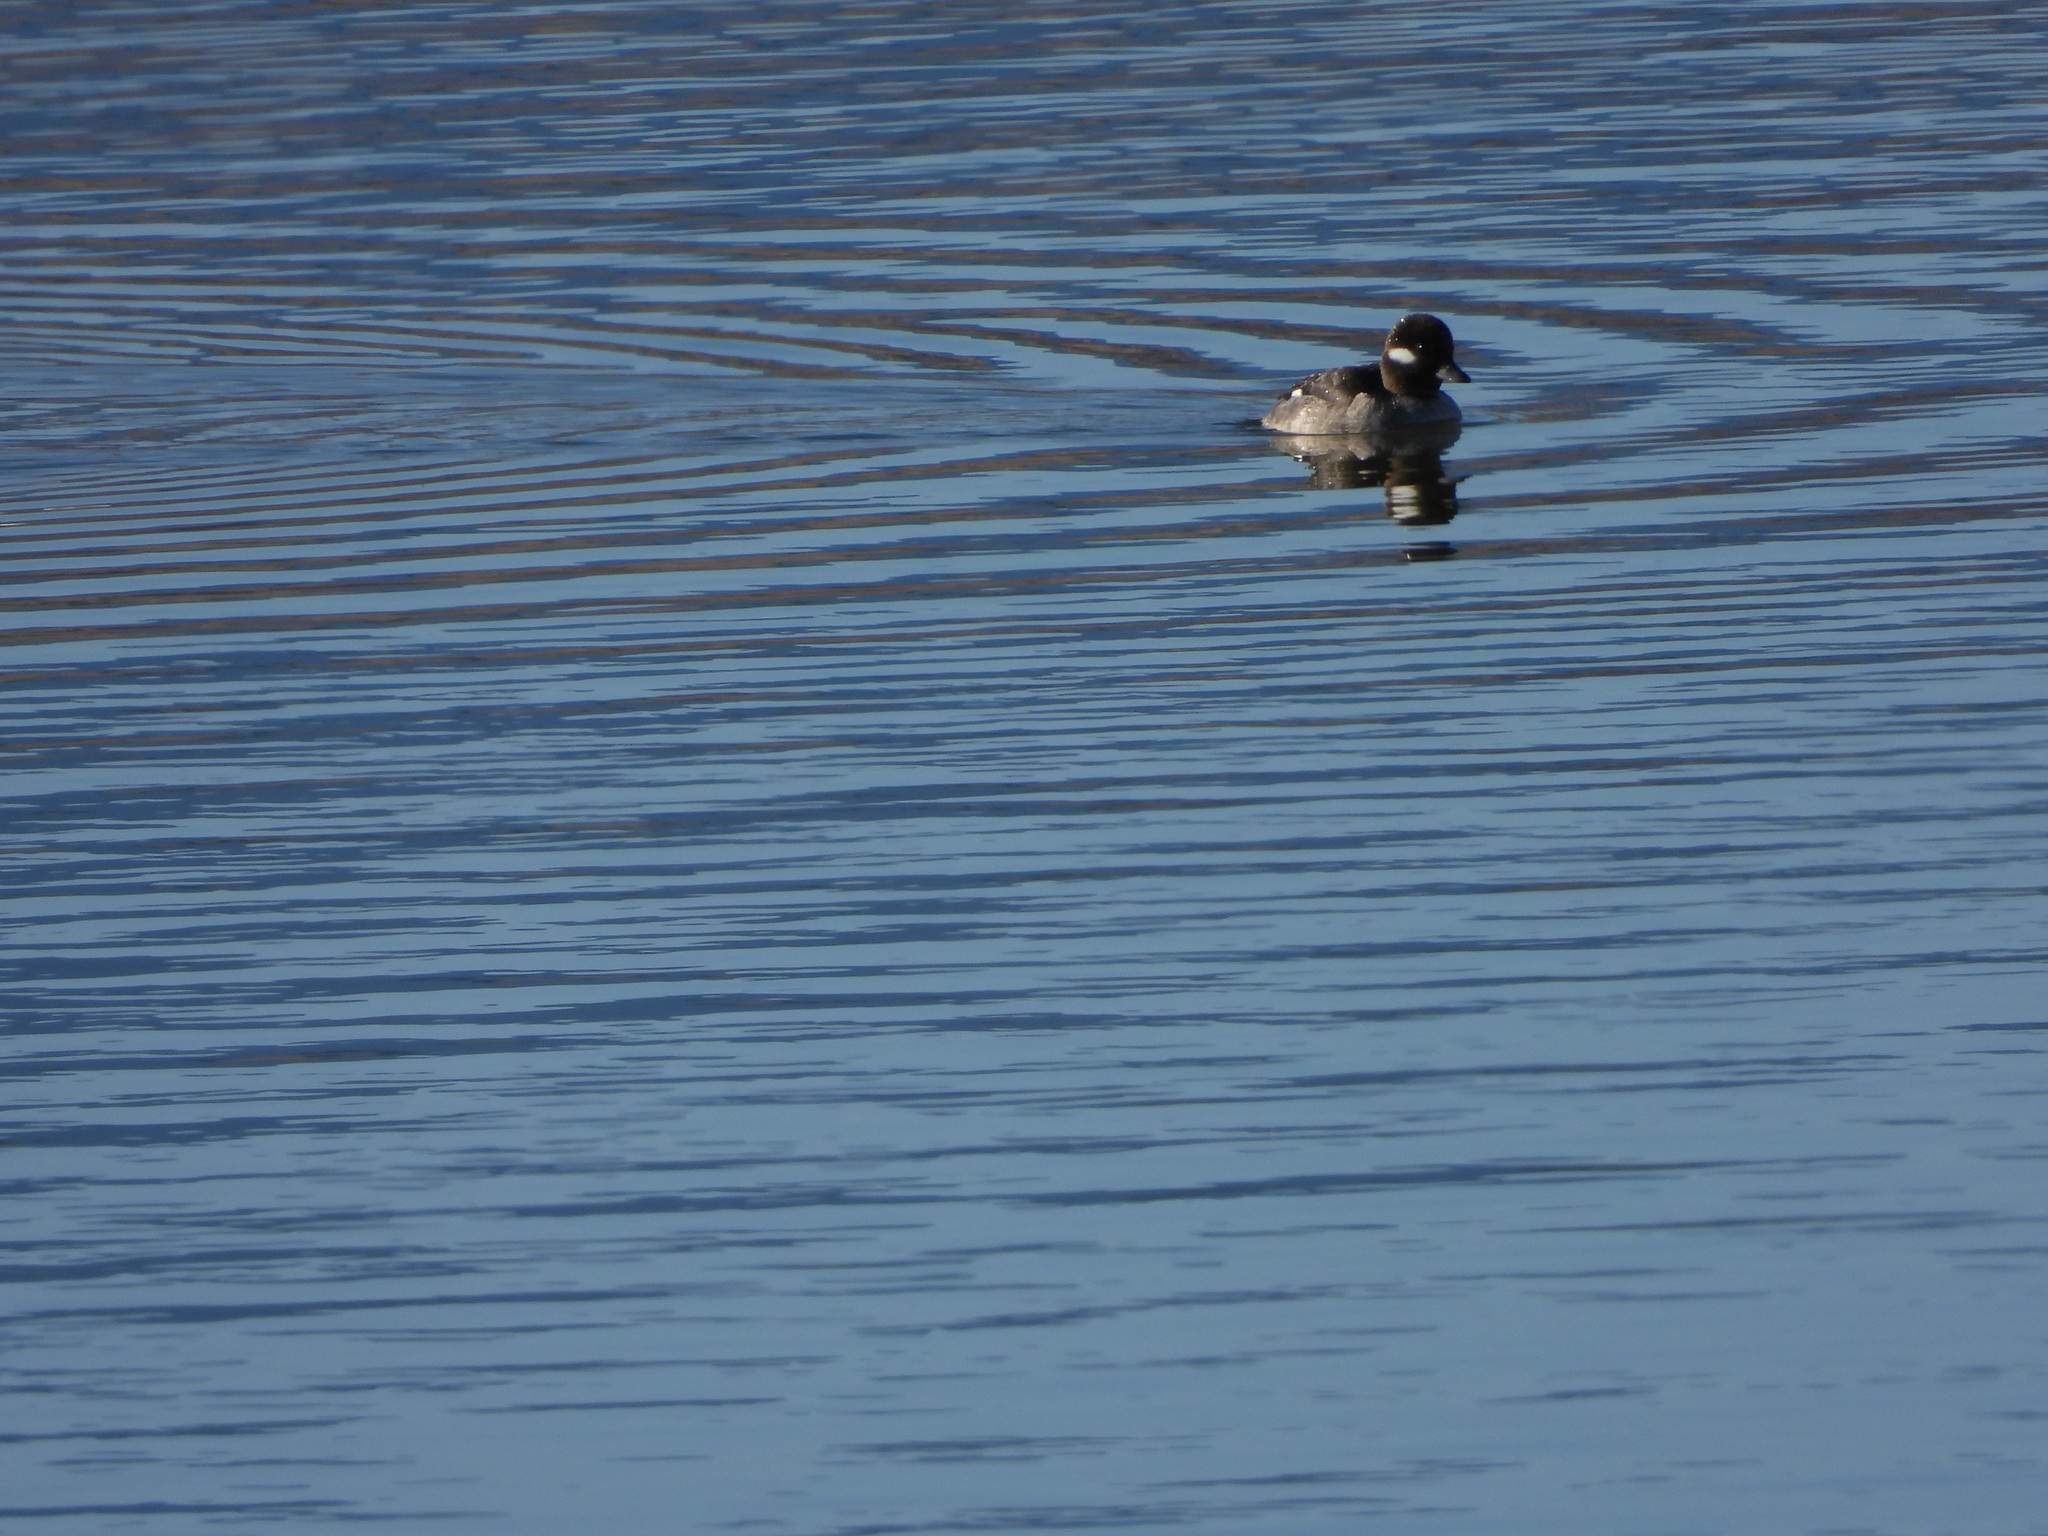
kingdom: Animalia
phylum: Chordata
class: Aves
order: Anseriformes
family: Anatidae
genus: Bucephala
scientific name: Bucephala albeola
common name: Bufflehead
